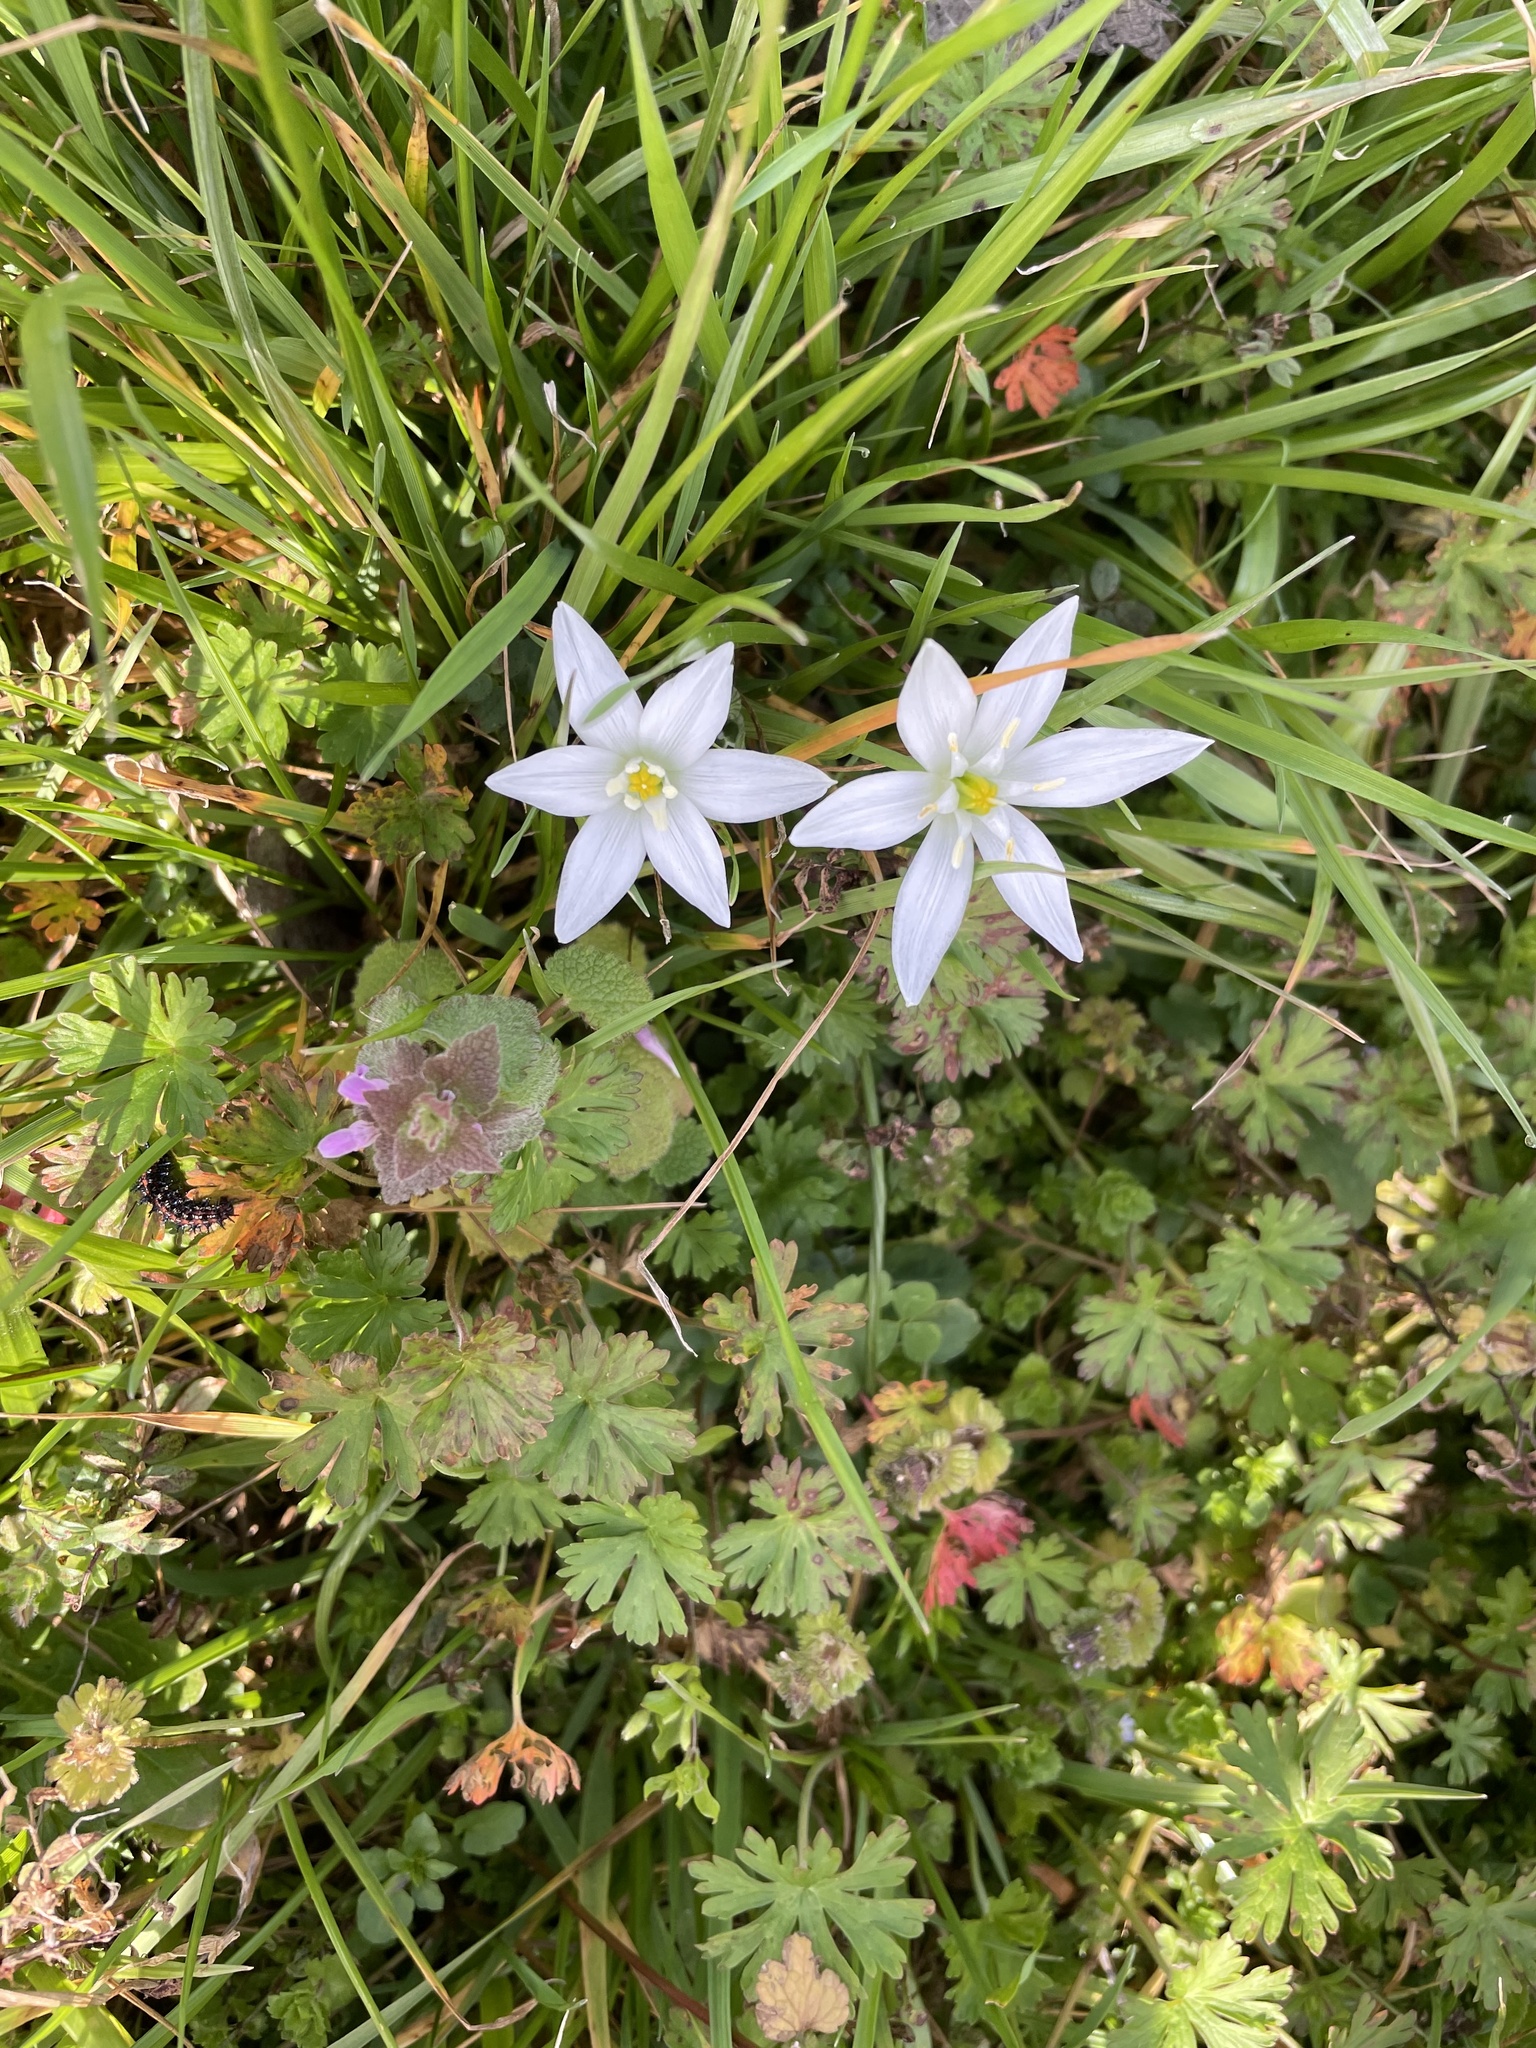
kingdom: Plantae
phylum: Tracheophyta
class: Liliopsida
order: Asparagales
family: Asparagaceae
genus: Ornithogalum
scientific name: Ornithogalum umbellatum
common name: Garden star-of-bethlehem
